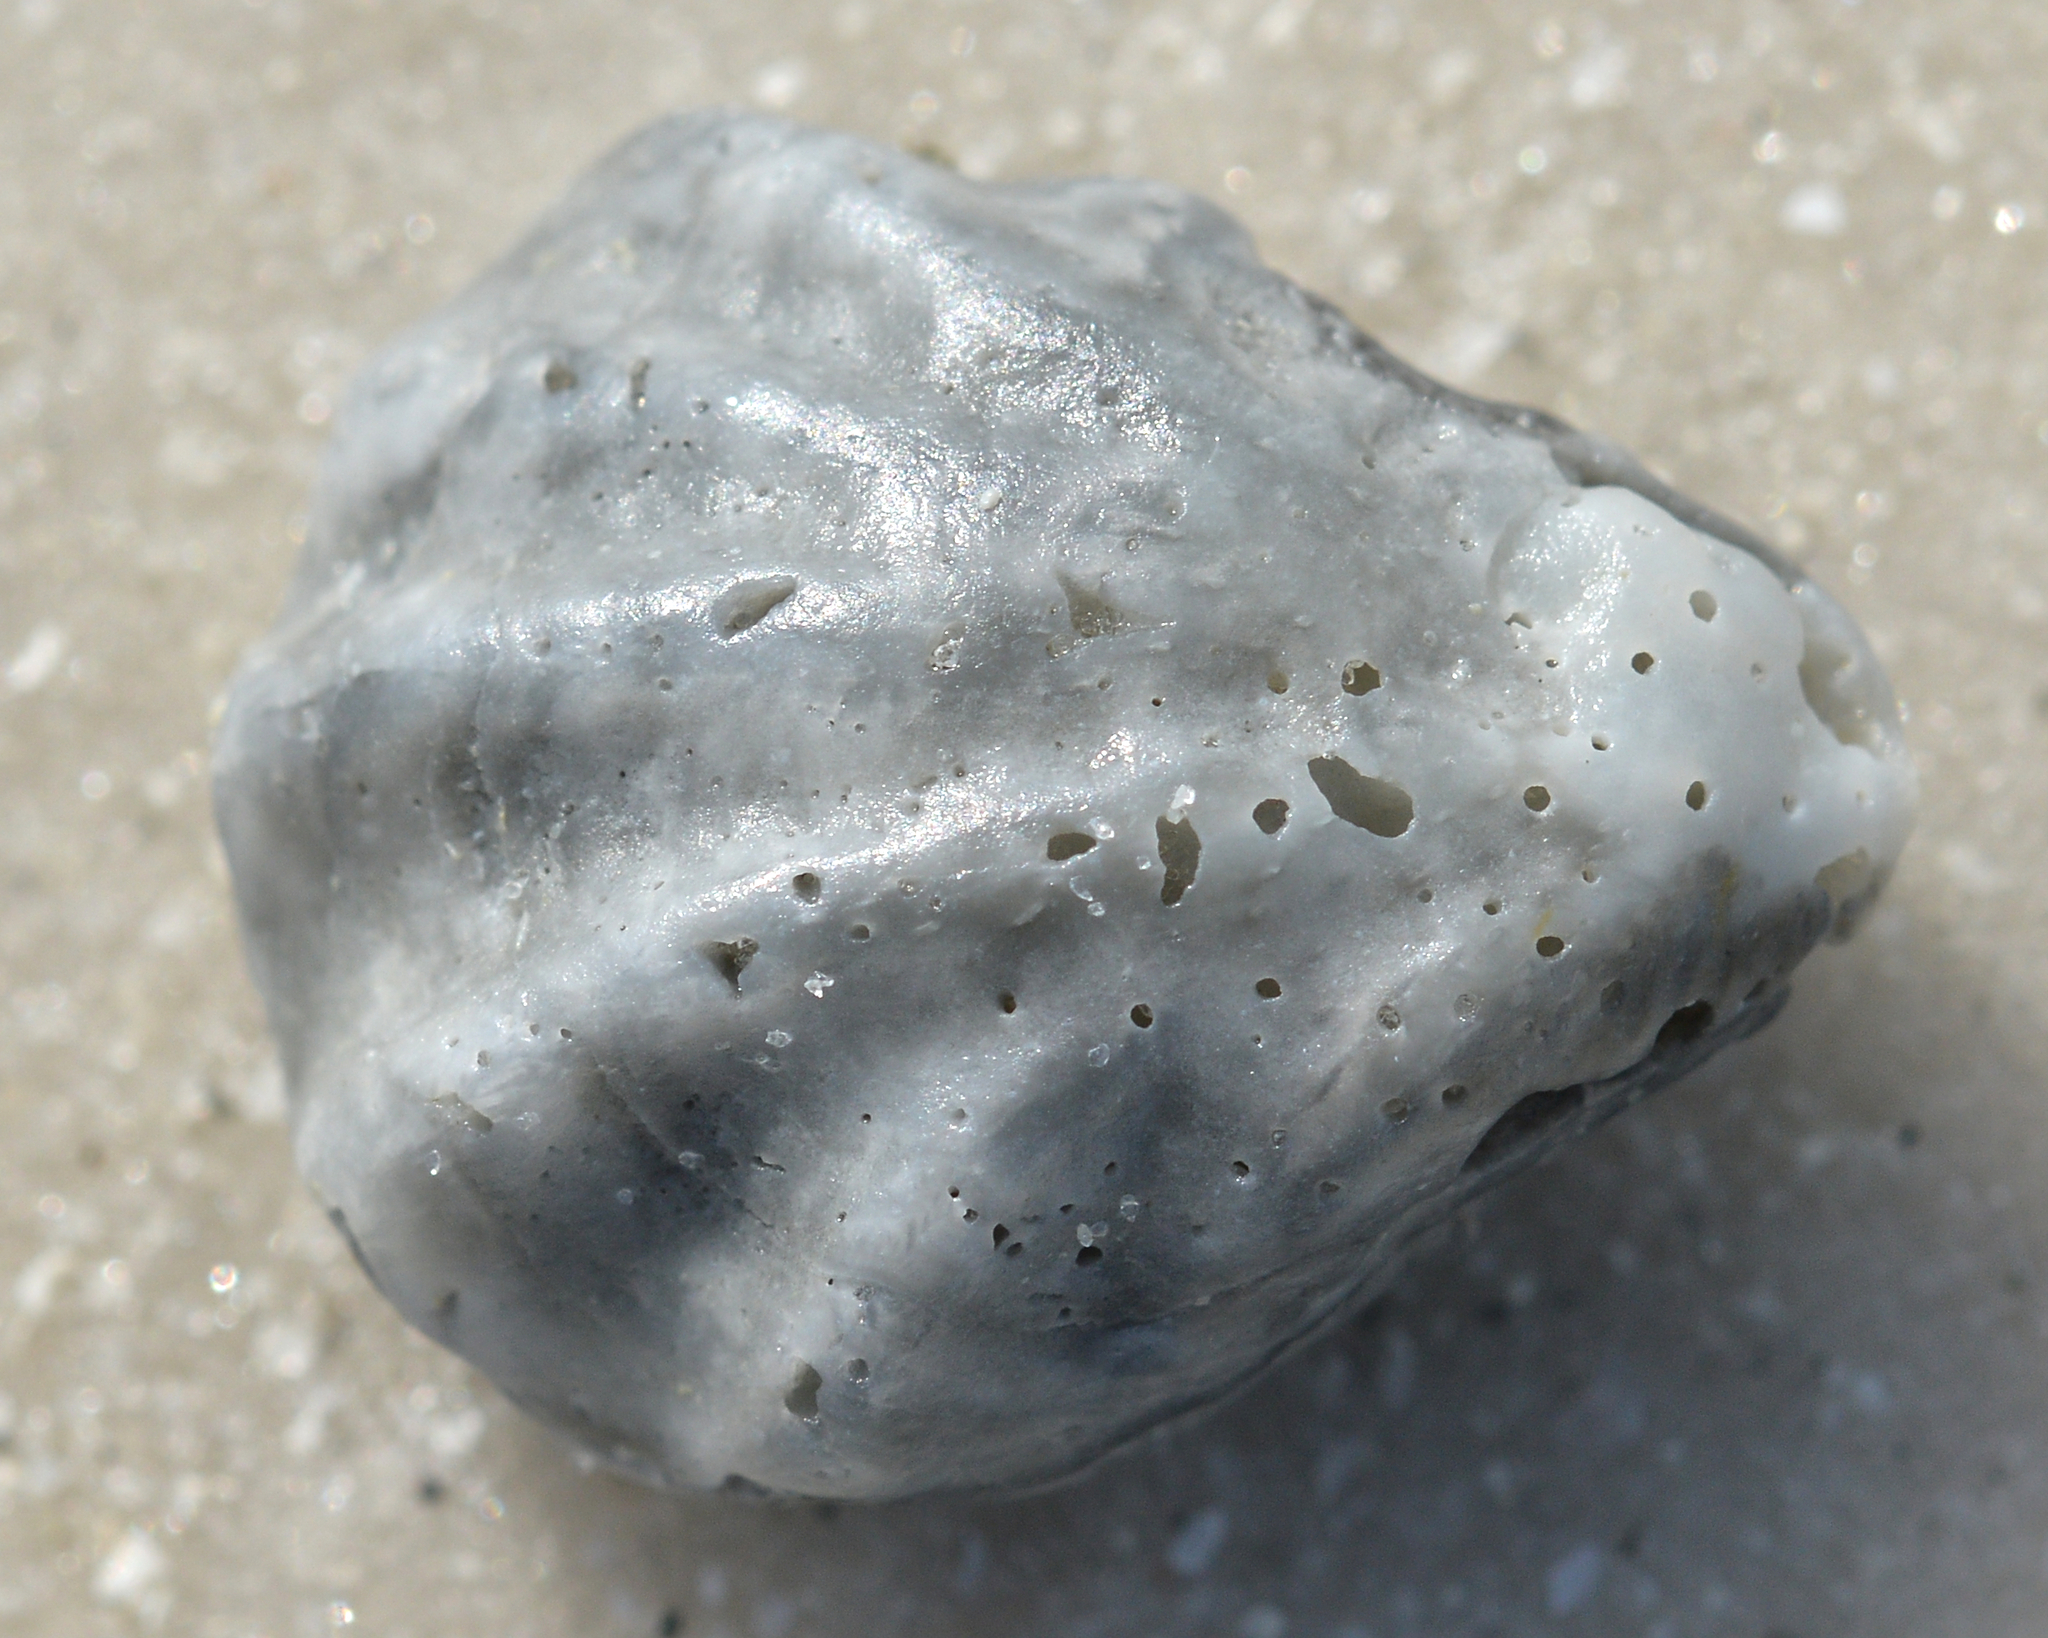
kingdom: Animalia
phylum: Mollusca
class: Bivalvia
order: Pectinida
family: Plicatulidae
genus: Plicatula
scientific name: Plicatula gibbosa
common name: Atlantic kitten's paw
